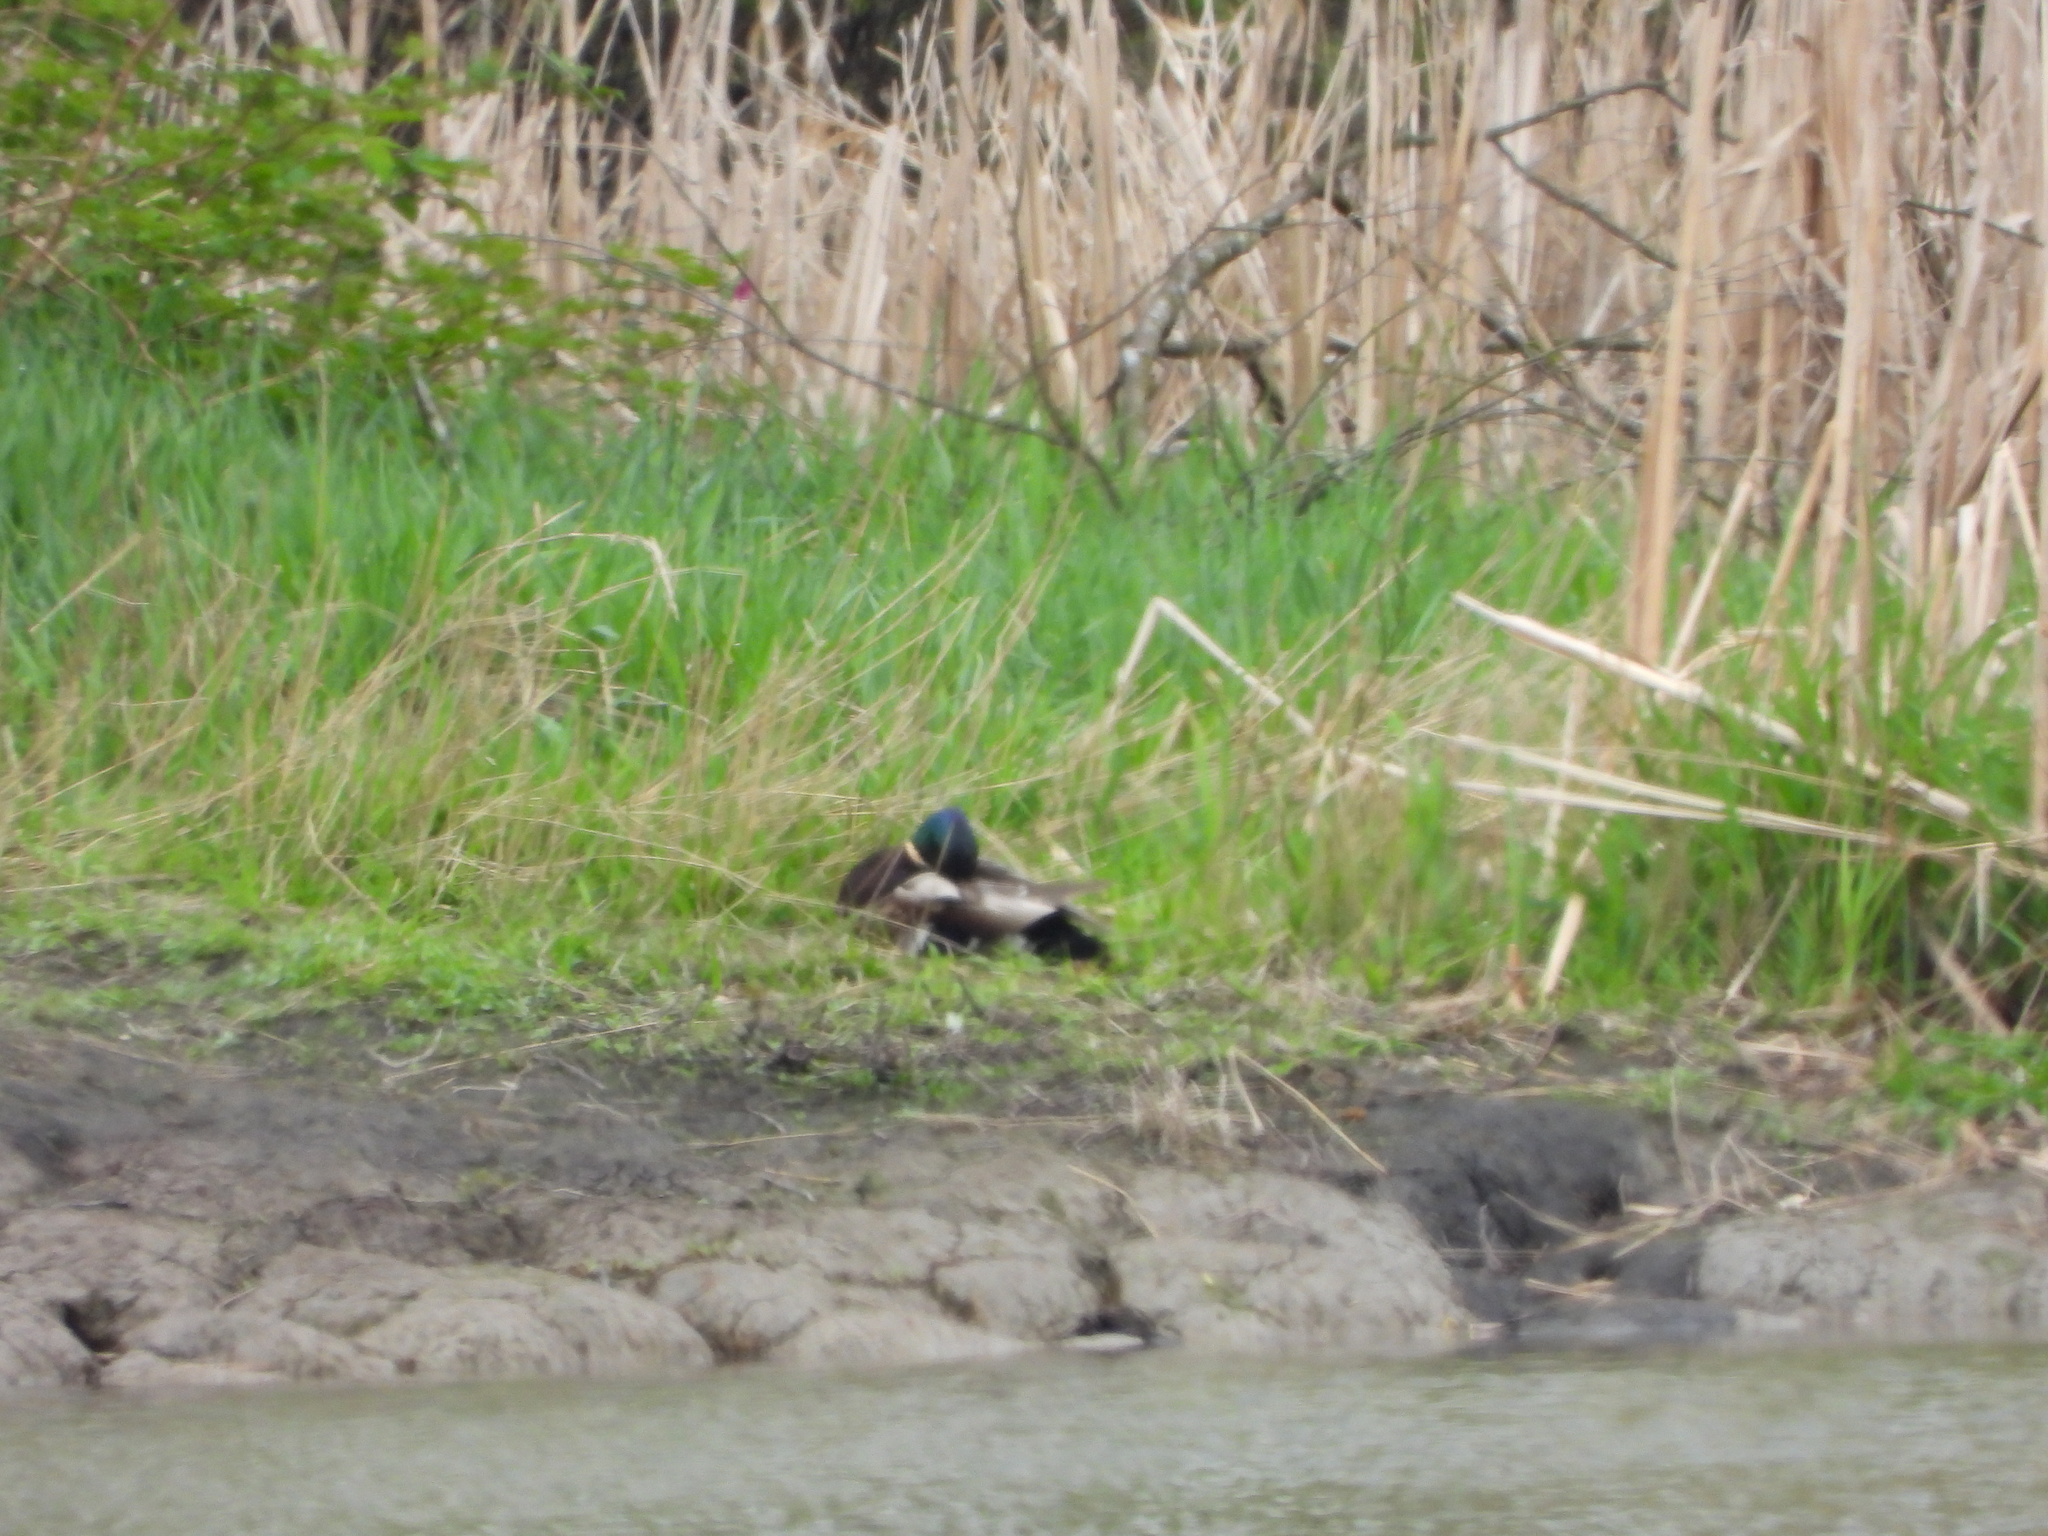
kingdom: Animalia
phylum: Chordata
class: Aves
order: Anseriformes
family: Anatidae
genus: Anas
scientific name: Anas platyrhynchos
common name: Mallard
